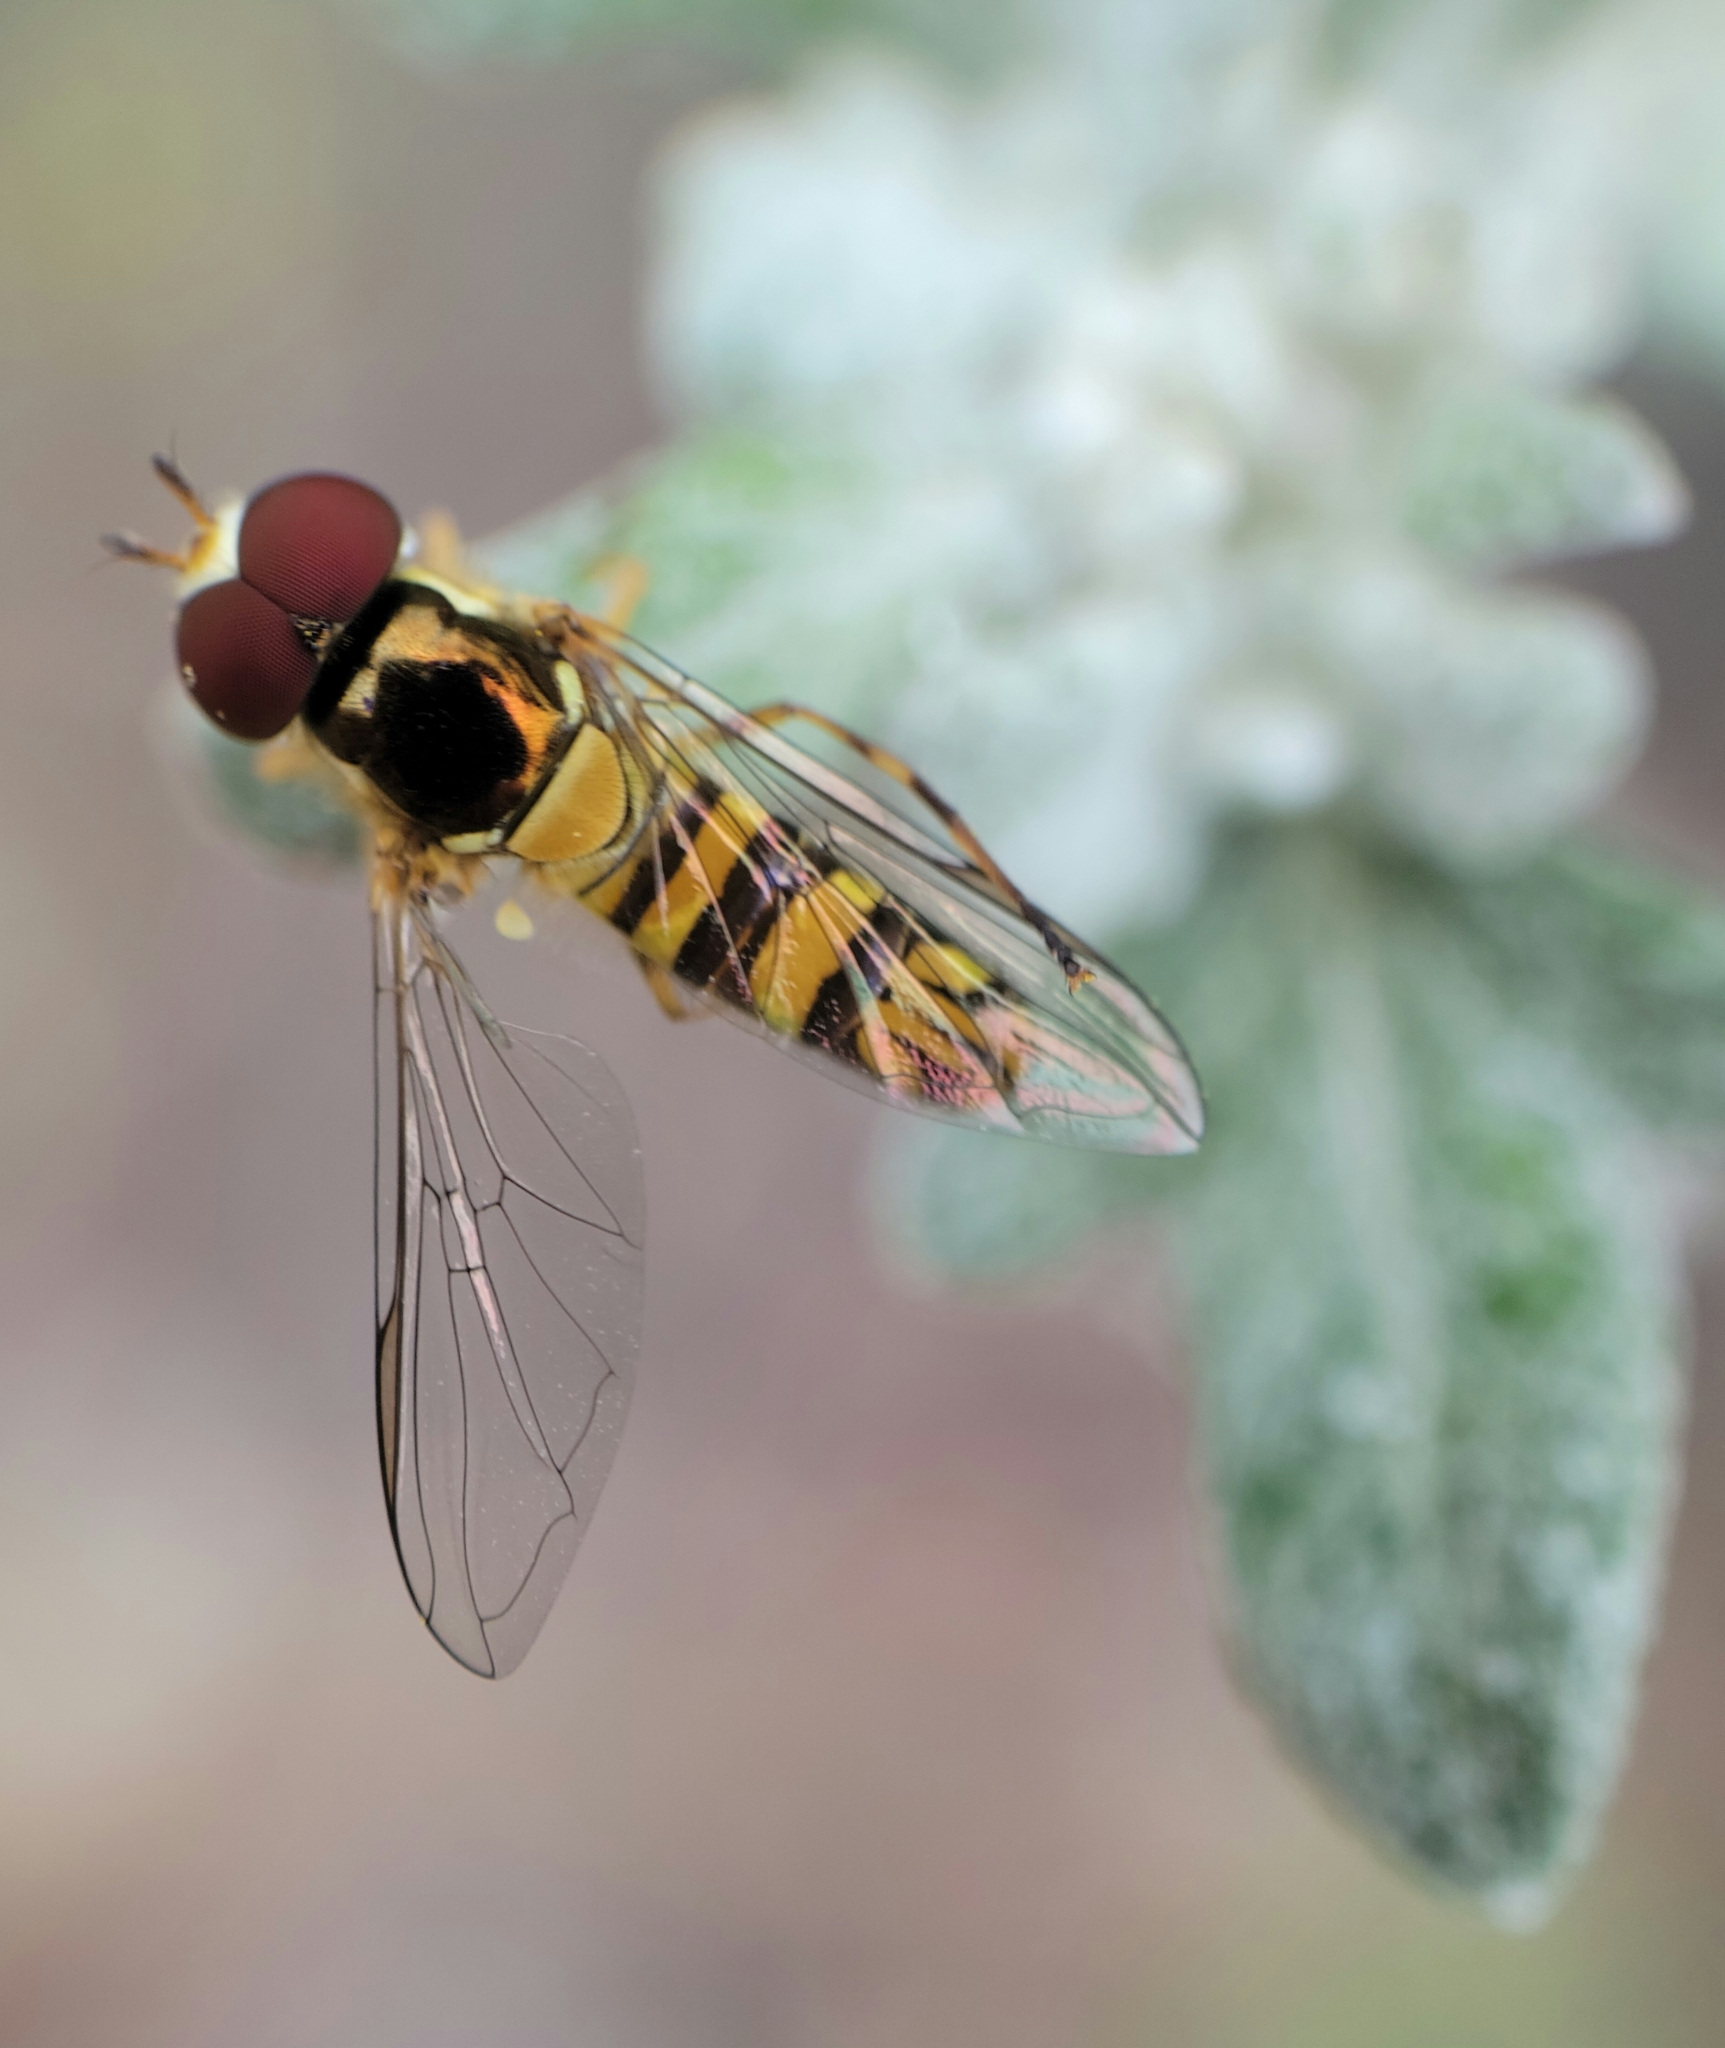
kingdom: Animalia
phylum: Arthropoda
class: Insecta
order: Diptera
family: Syrphidae
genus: Allograpta
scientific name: Allograpta obliqua
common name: Common oblique syrphid
